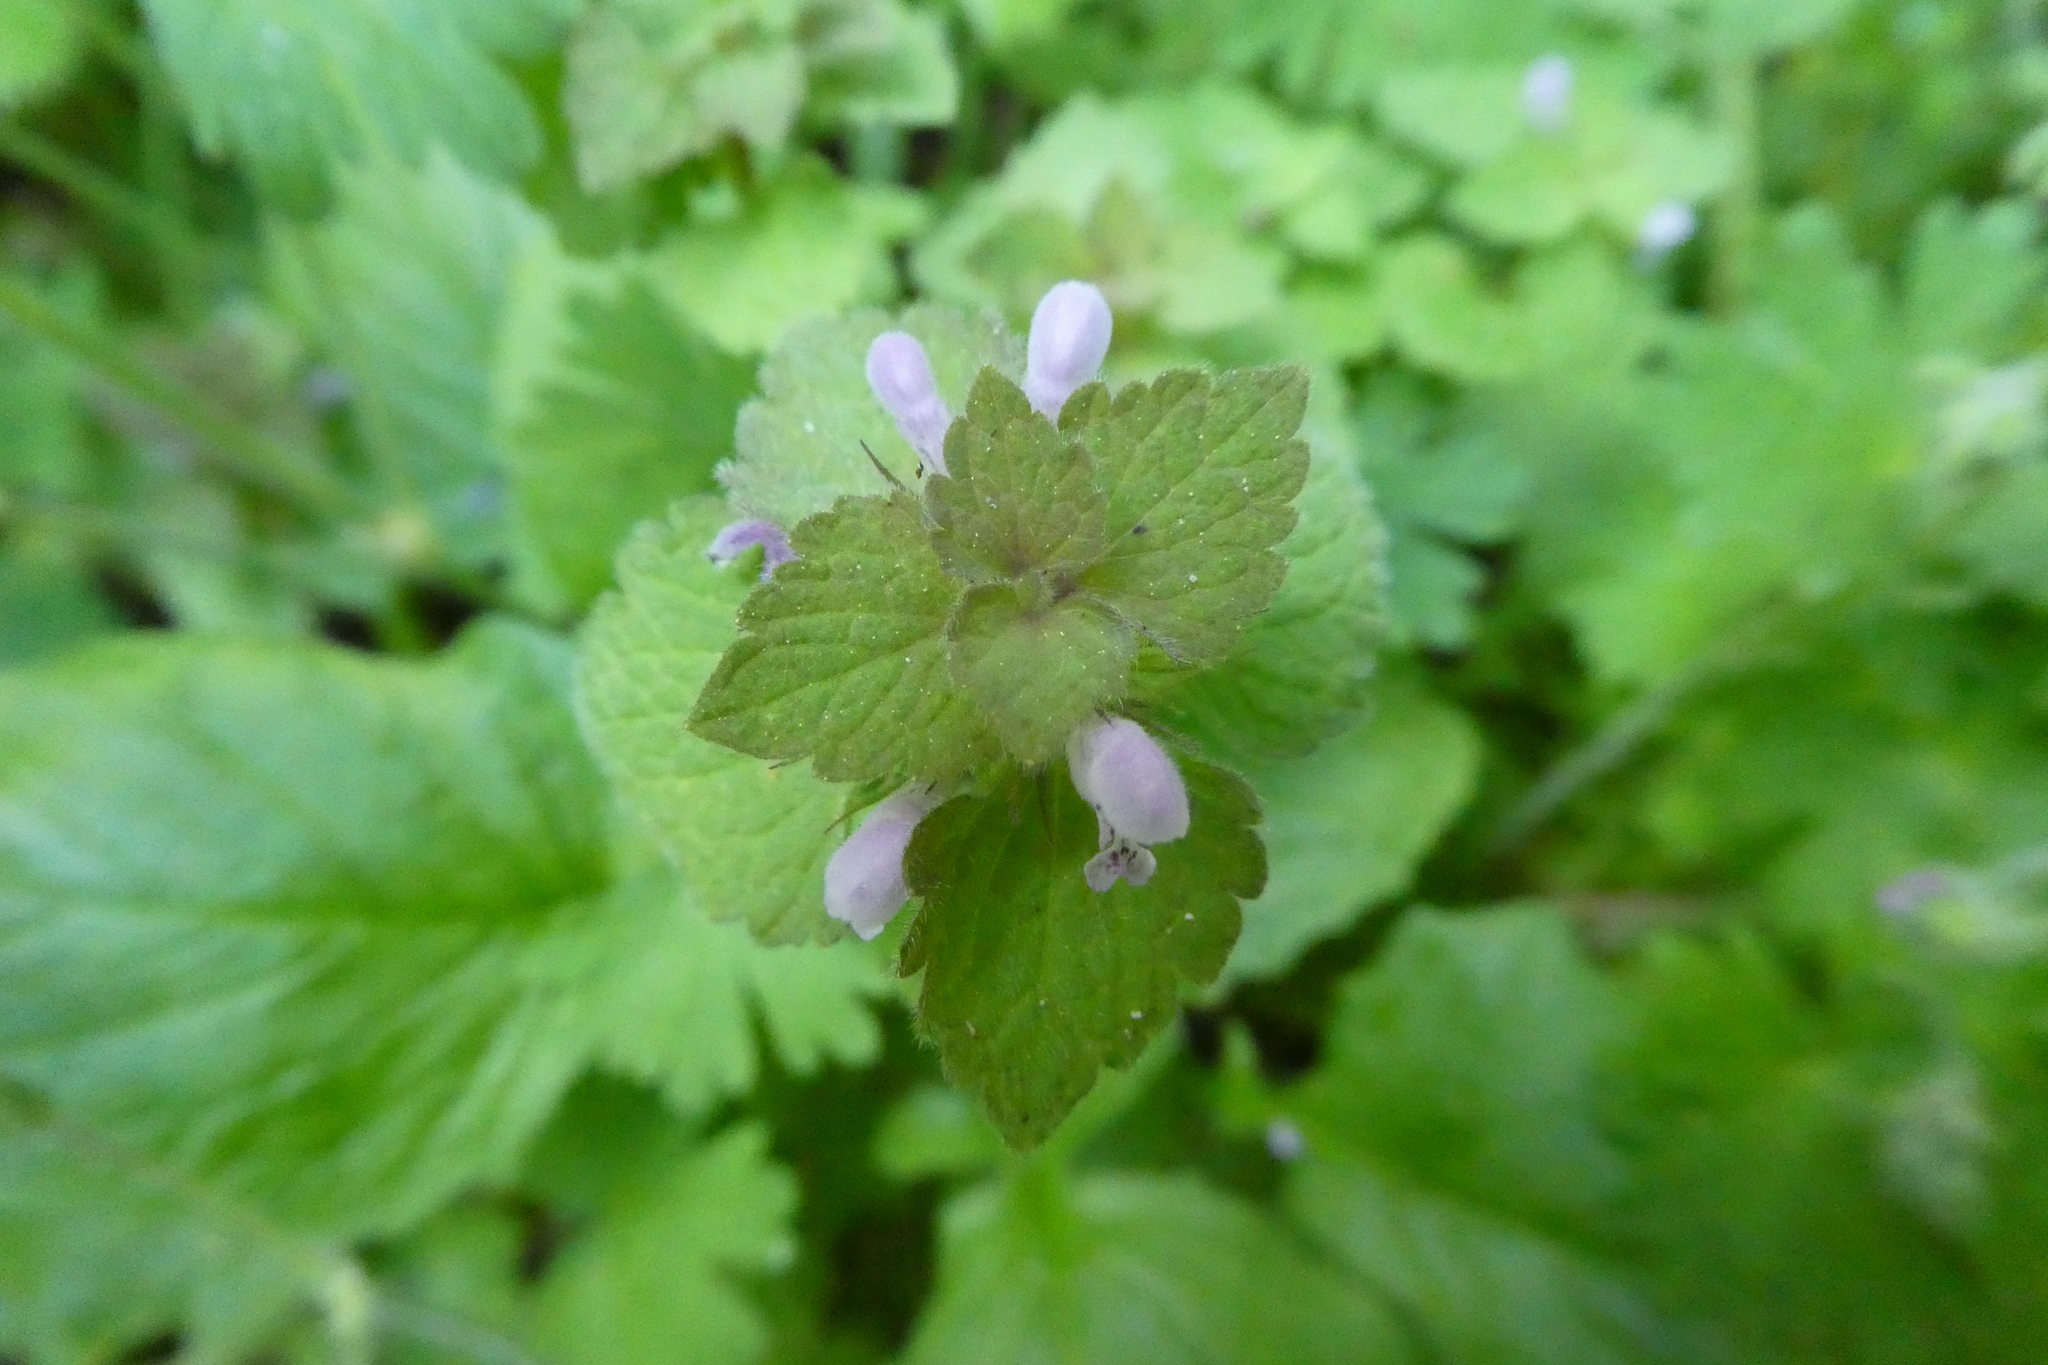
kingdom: Plantae
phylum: Tracheophyta
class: Magnoliopsida
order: Lamiales
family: Lamiaceae
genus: Lamium
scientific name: Lamium purpureum
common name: Red dead-nettle
